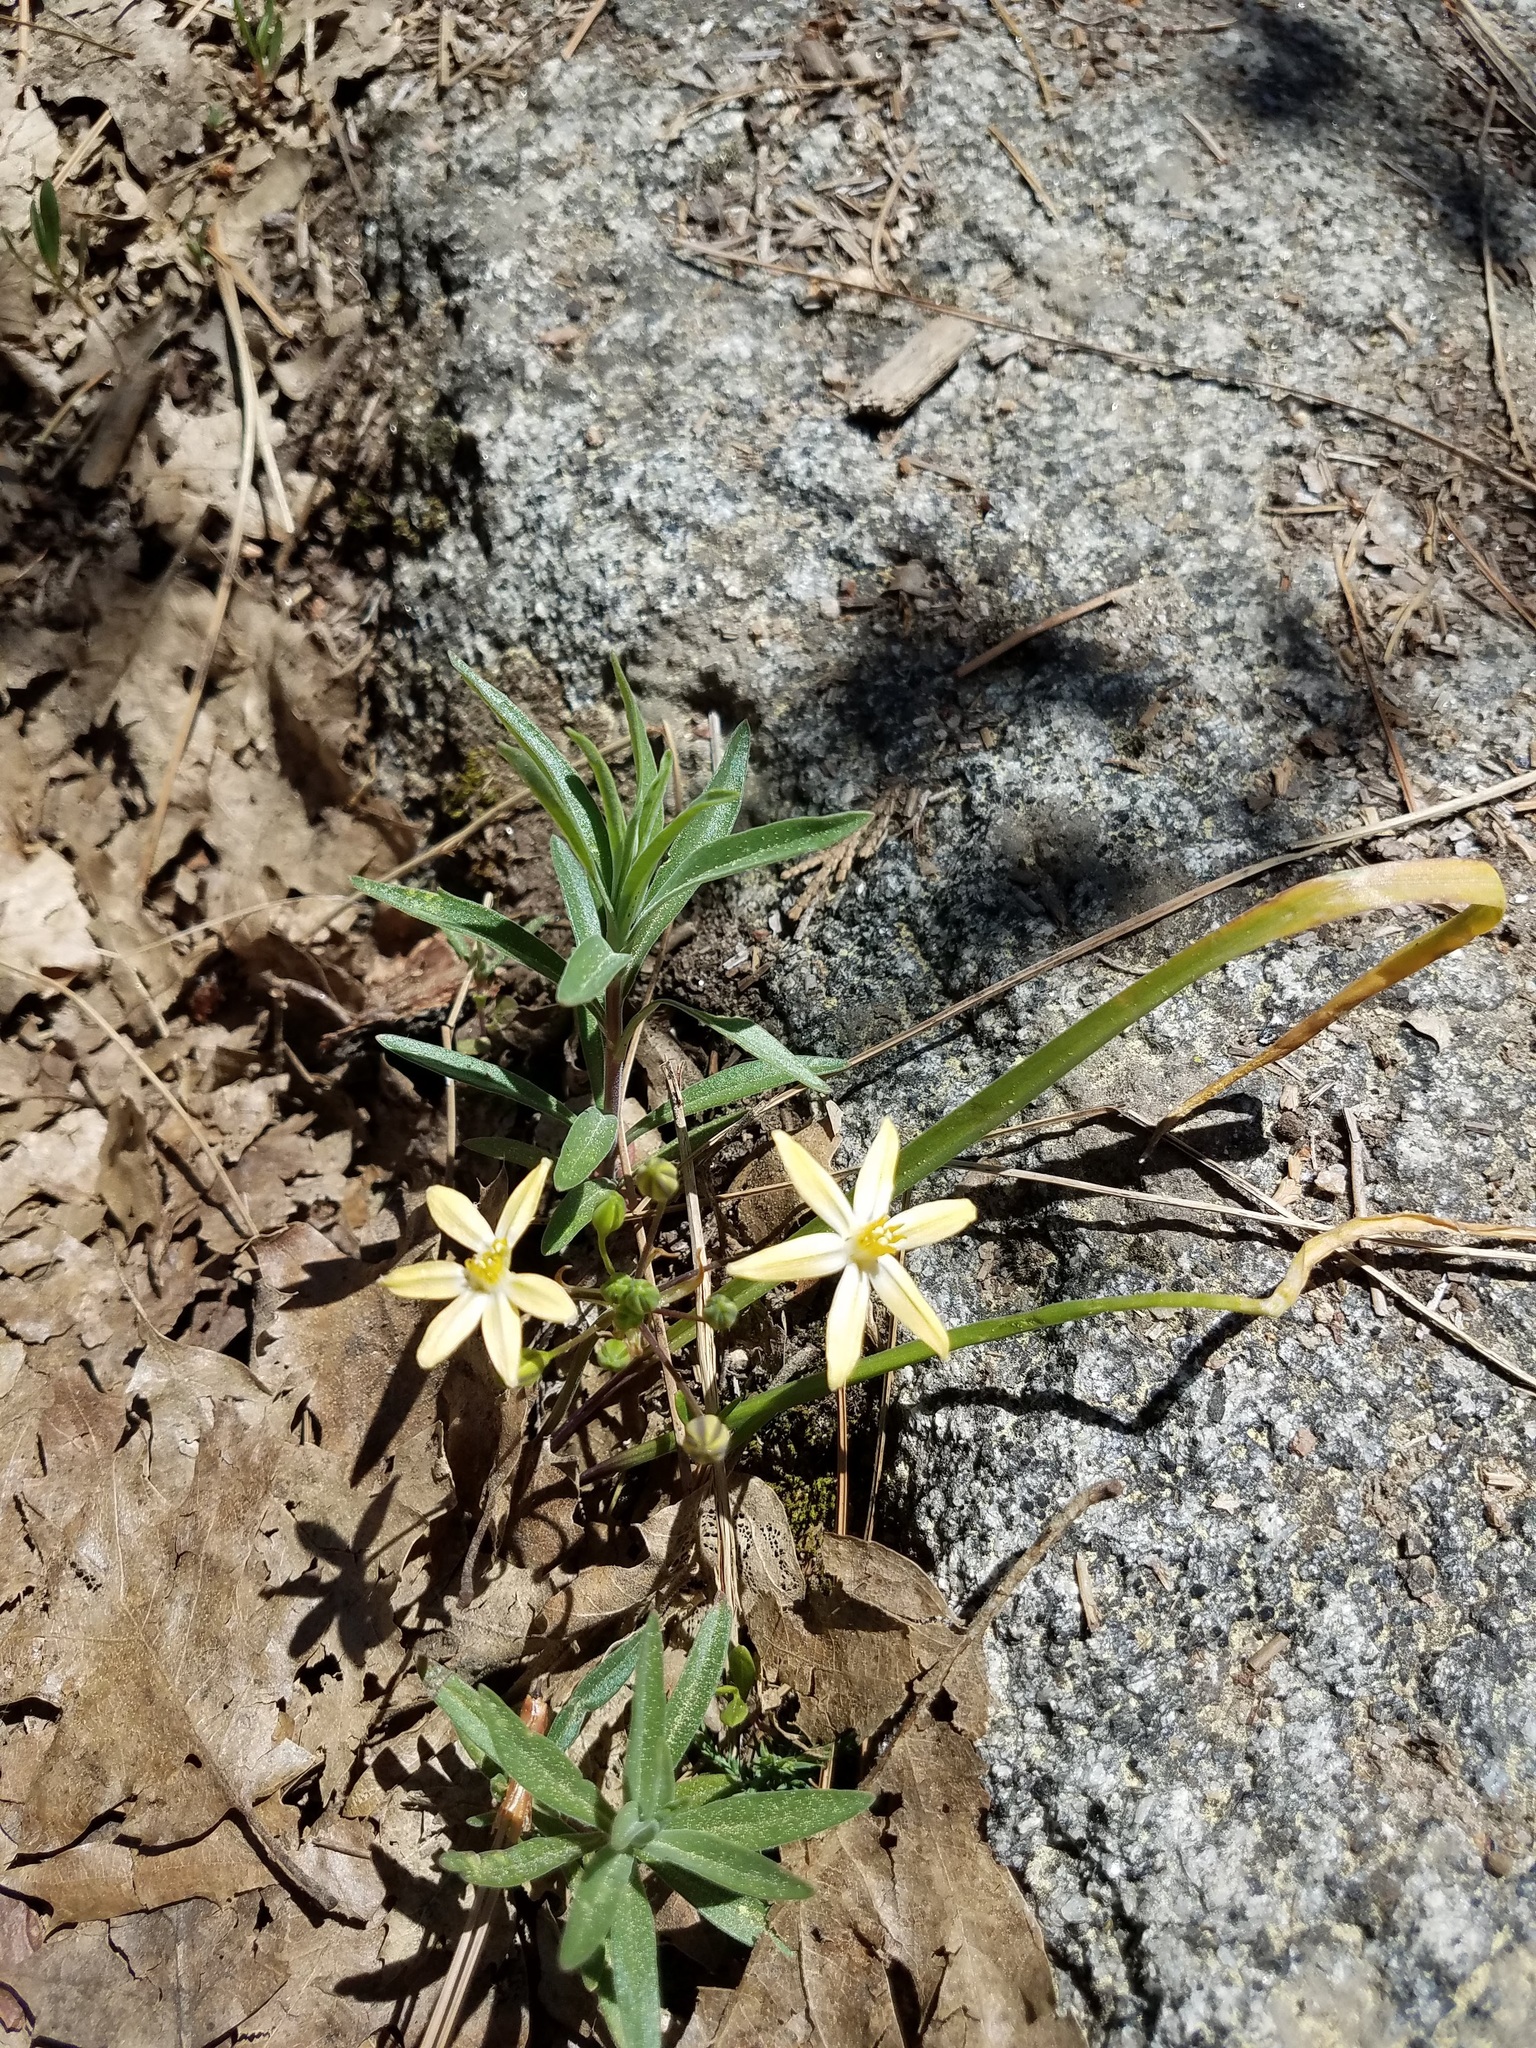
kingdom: Plantae
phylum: Tracheophyta
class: Liliopsida
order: Asparagales
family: Asparagaceae
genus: Triteleia
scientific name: Triteleia ixioides
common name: Yellow-brodiaea
